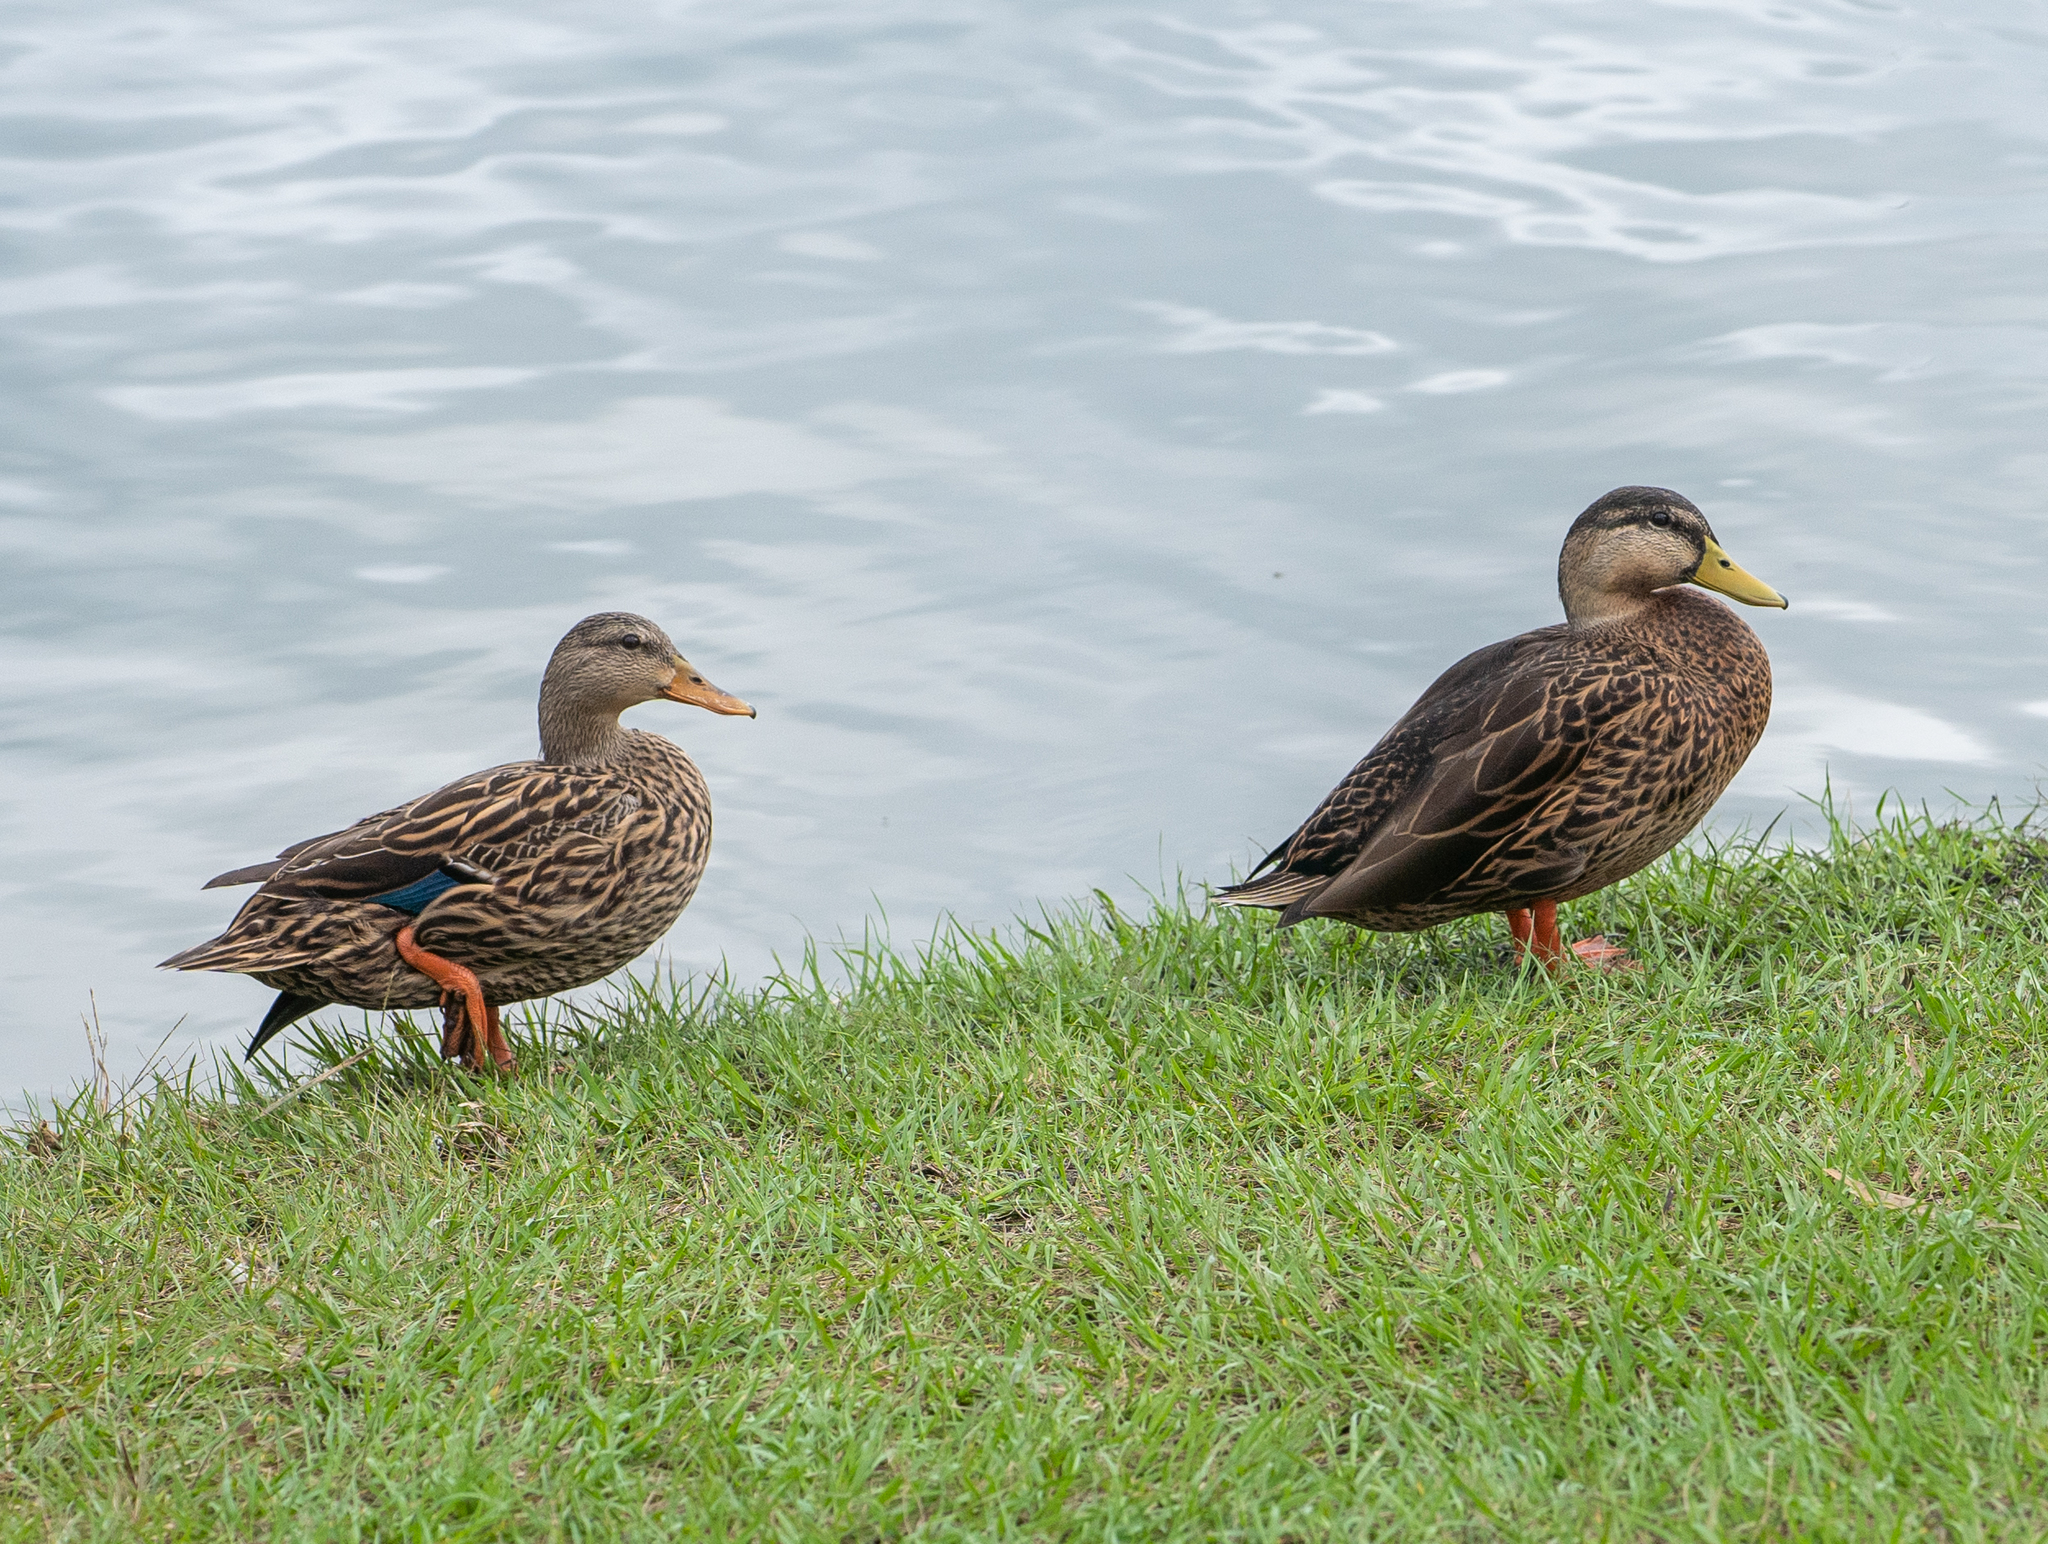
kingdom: Animalia
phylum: Chordata
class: Aves
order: Anseriformes
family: Anatidae
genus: Anas
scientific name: Anas
